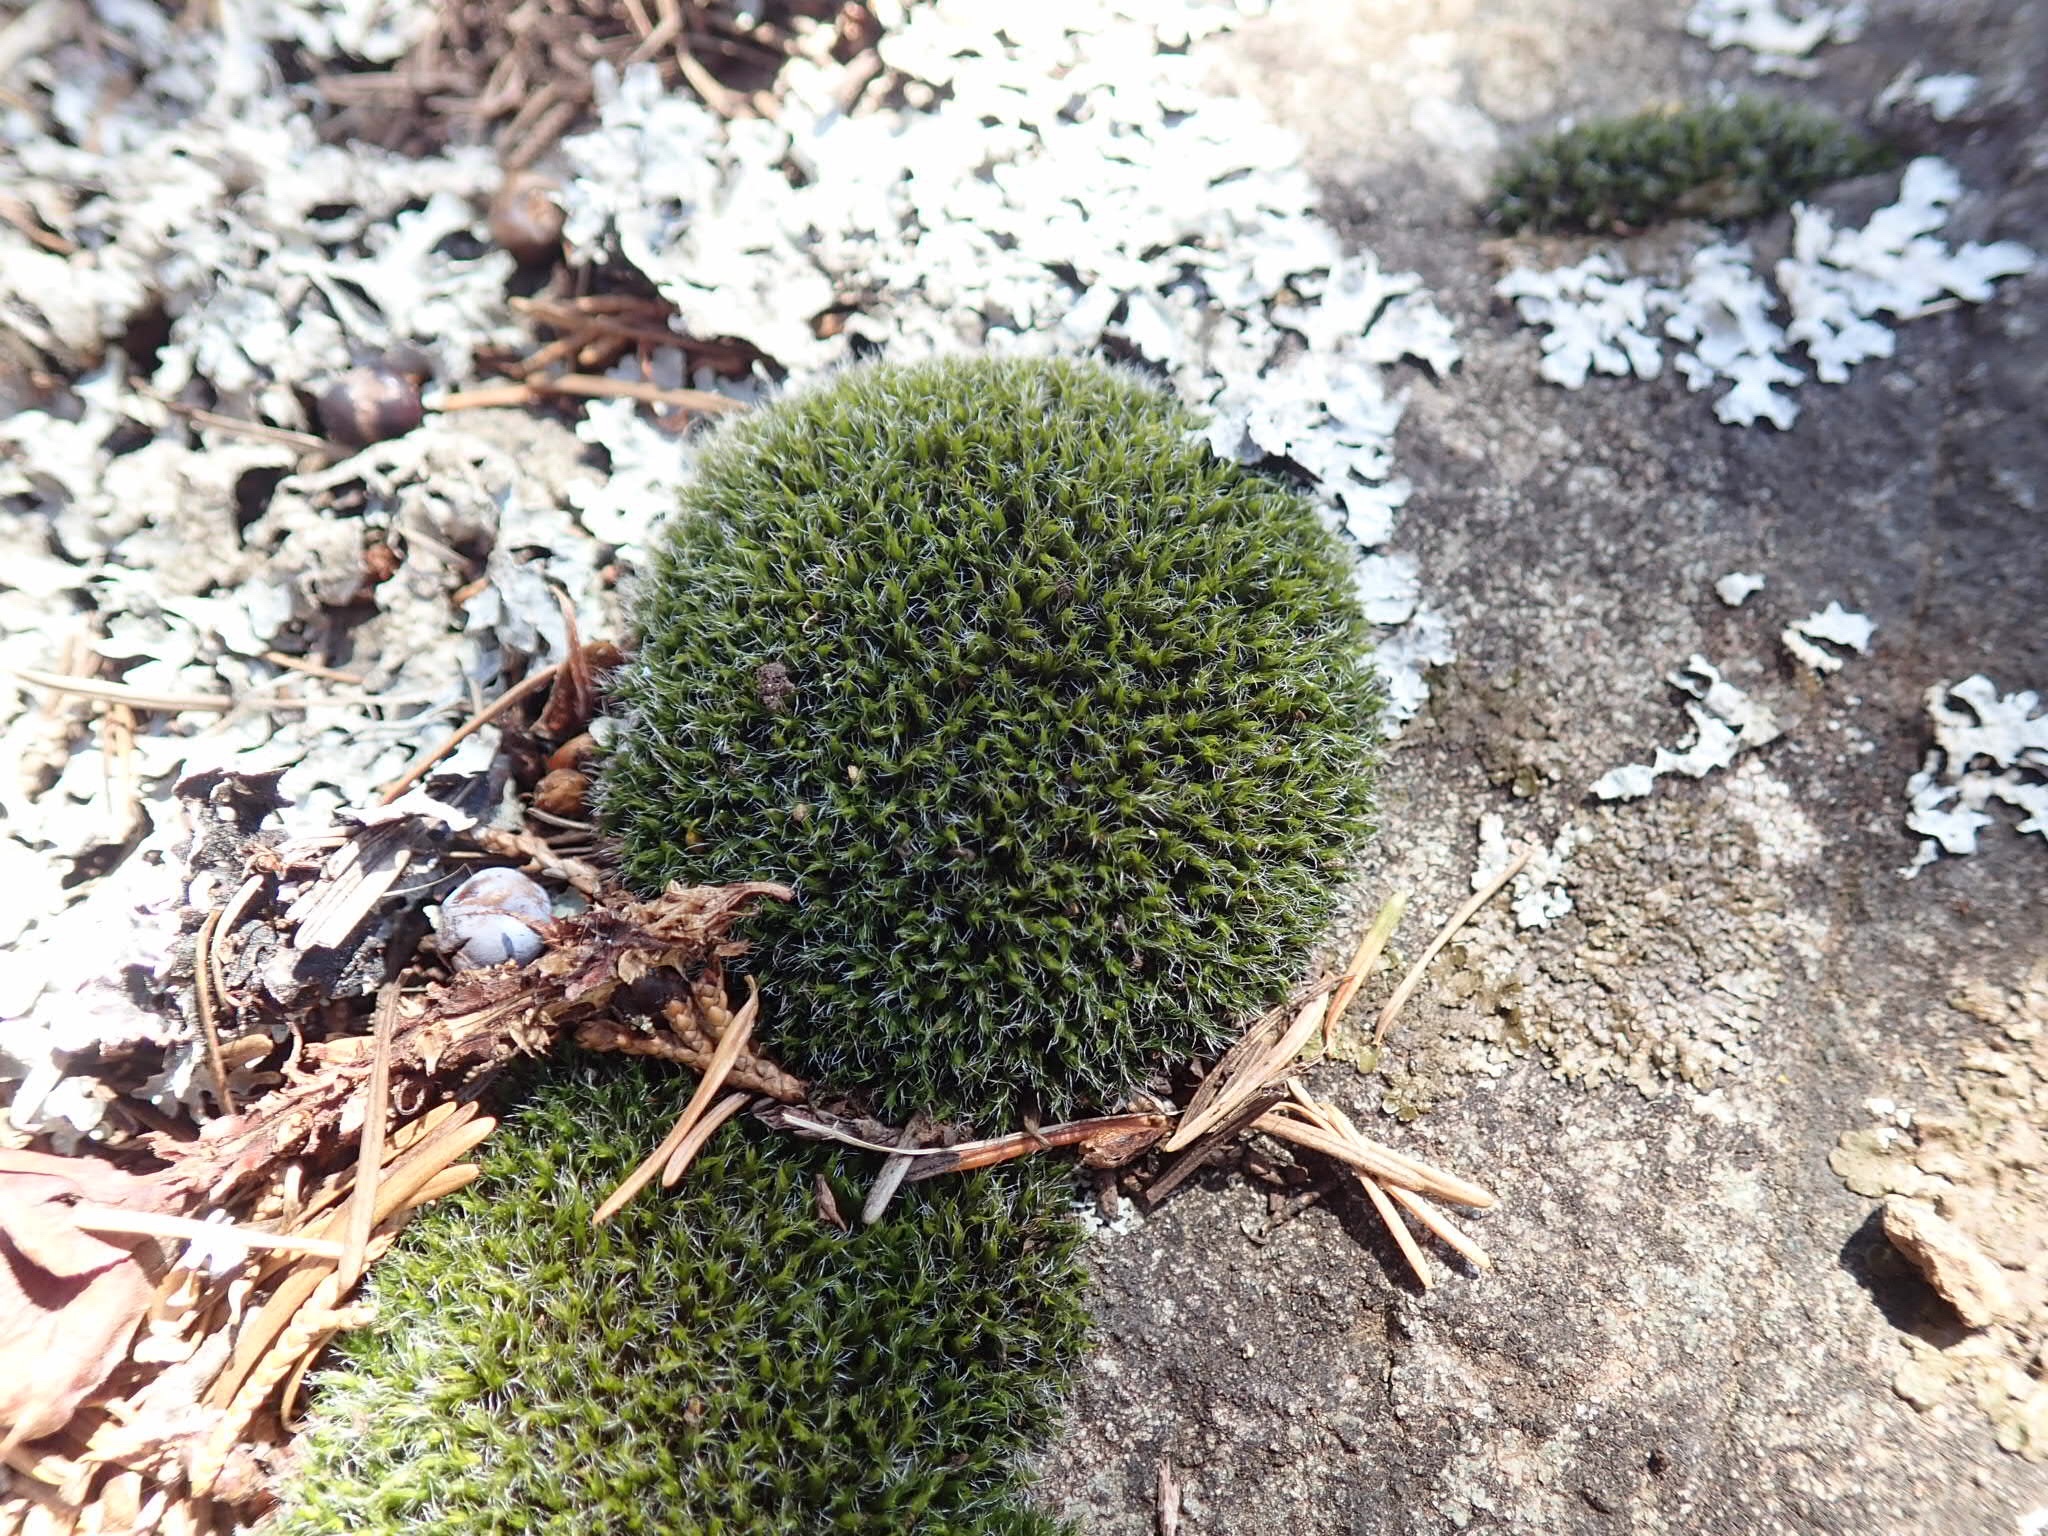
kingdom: Plantae
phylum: Bryophyta
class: Bryopsida
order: Grimmiales
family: Grimmiaceae
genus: Grimmia
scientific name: Grimmia pulvinata
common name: Grey-cushioned grimmia
